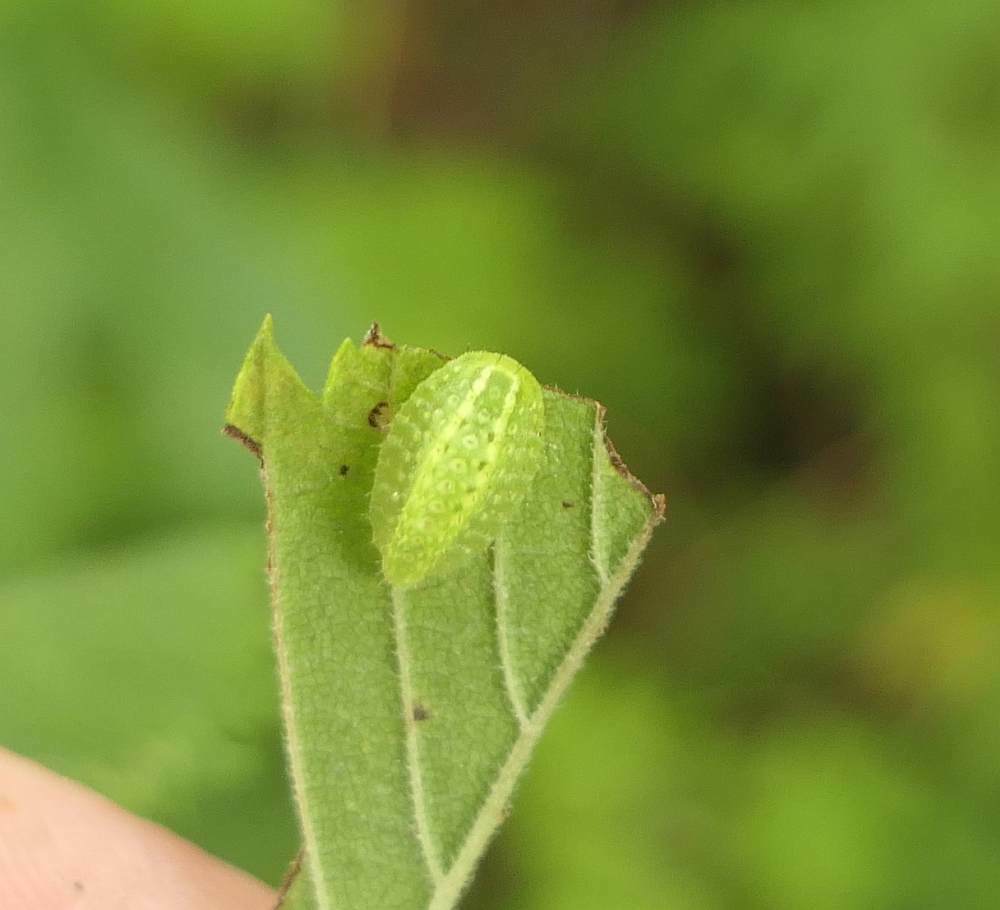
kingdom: Animalia
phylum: Arthropoda
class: Insecta
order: Lepidoptera
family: Limacodidae
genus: Lithacodes
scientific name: Lithacodes fasciola
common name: Yellow-shouldered slug moth
